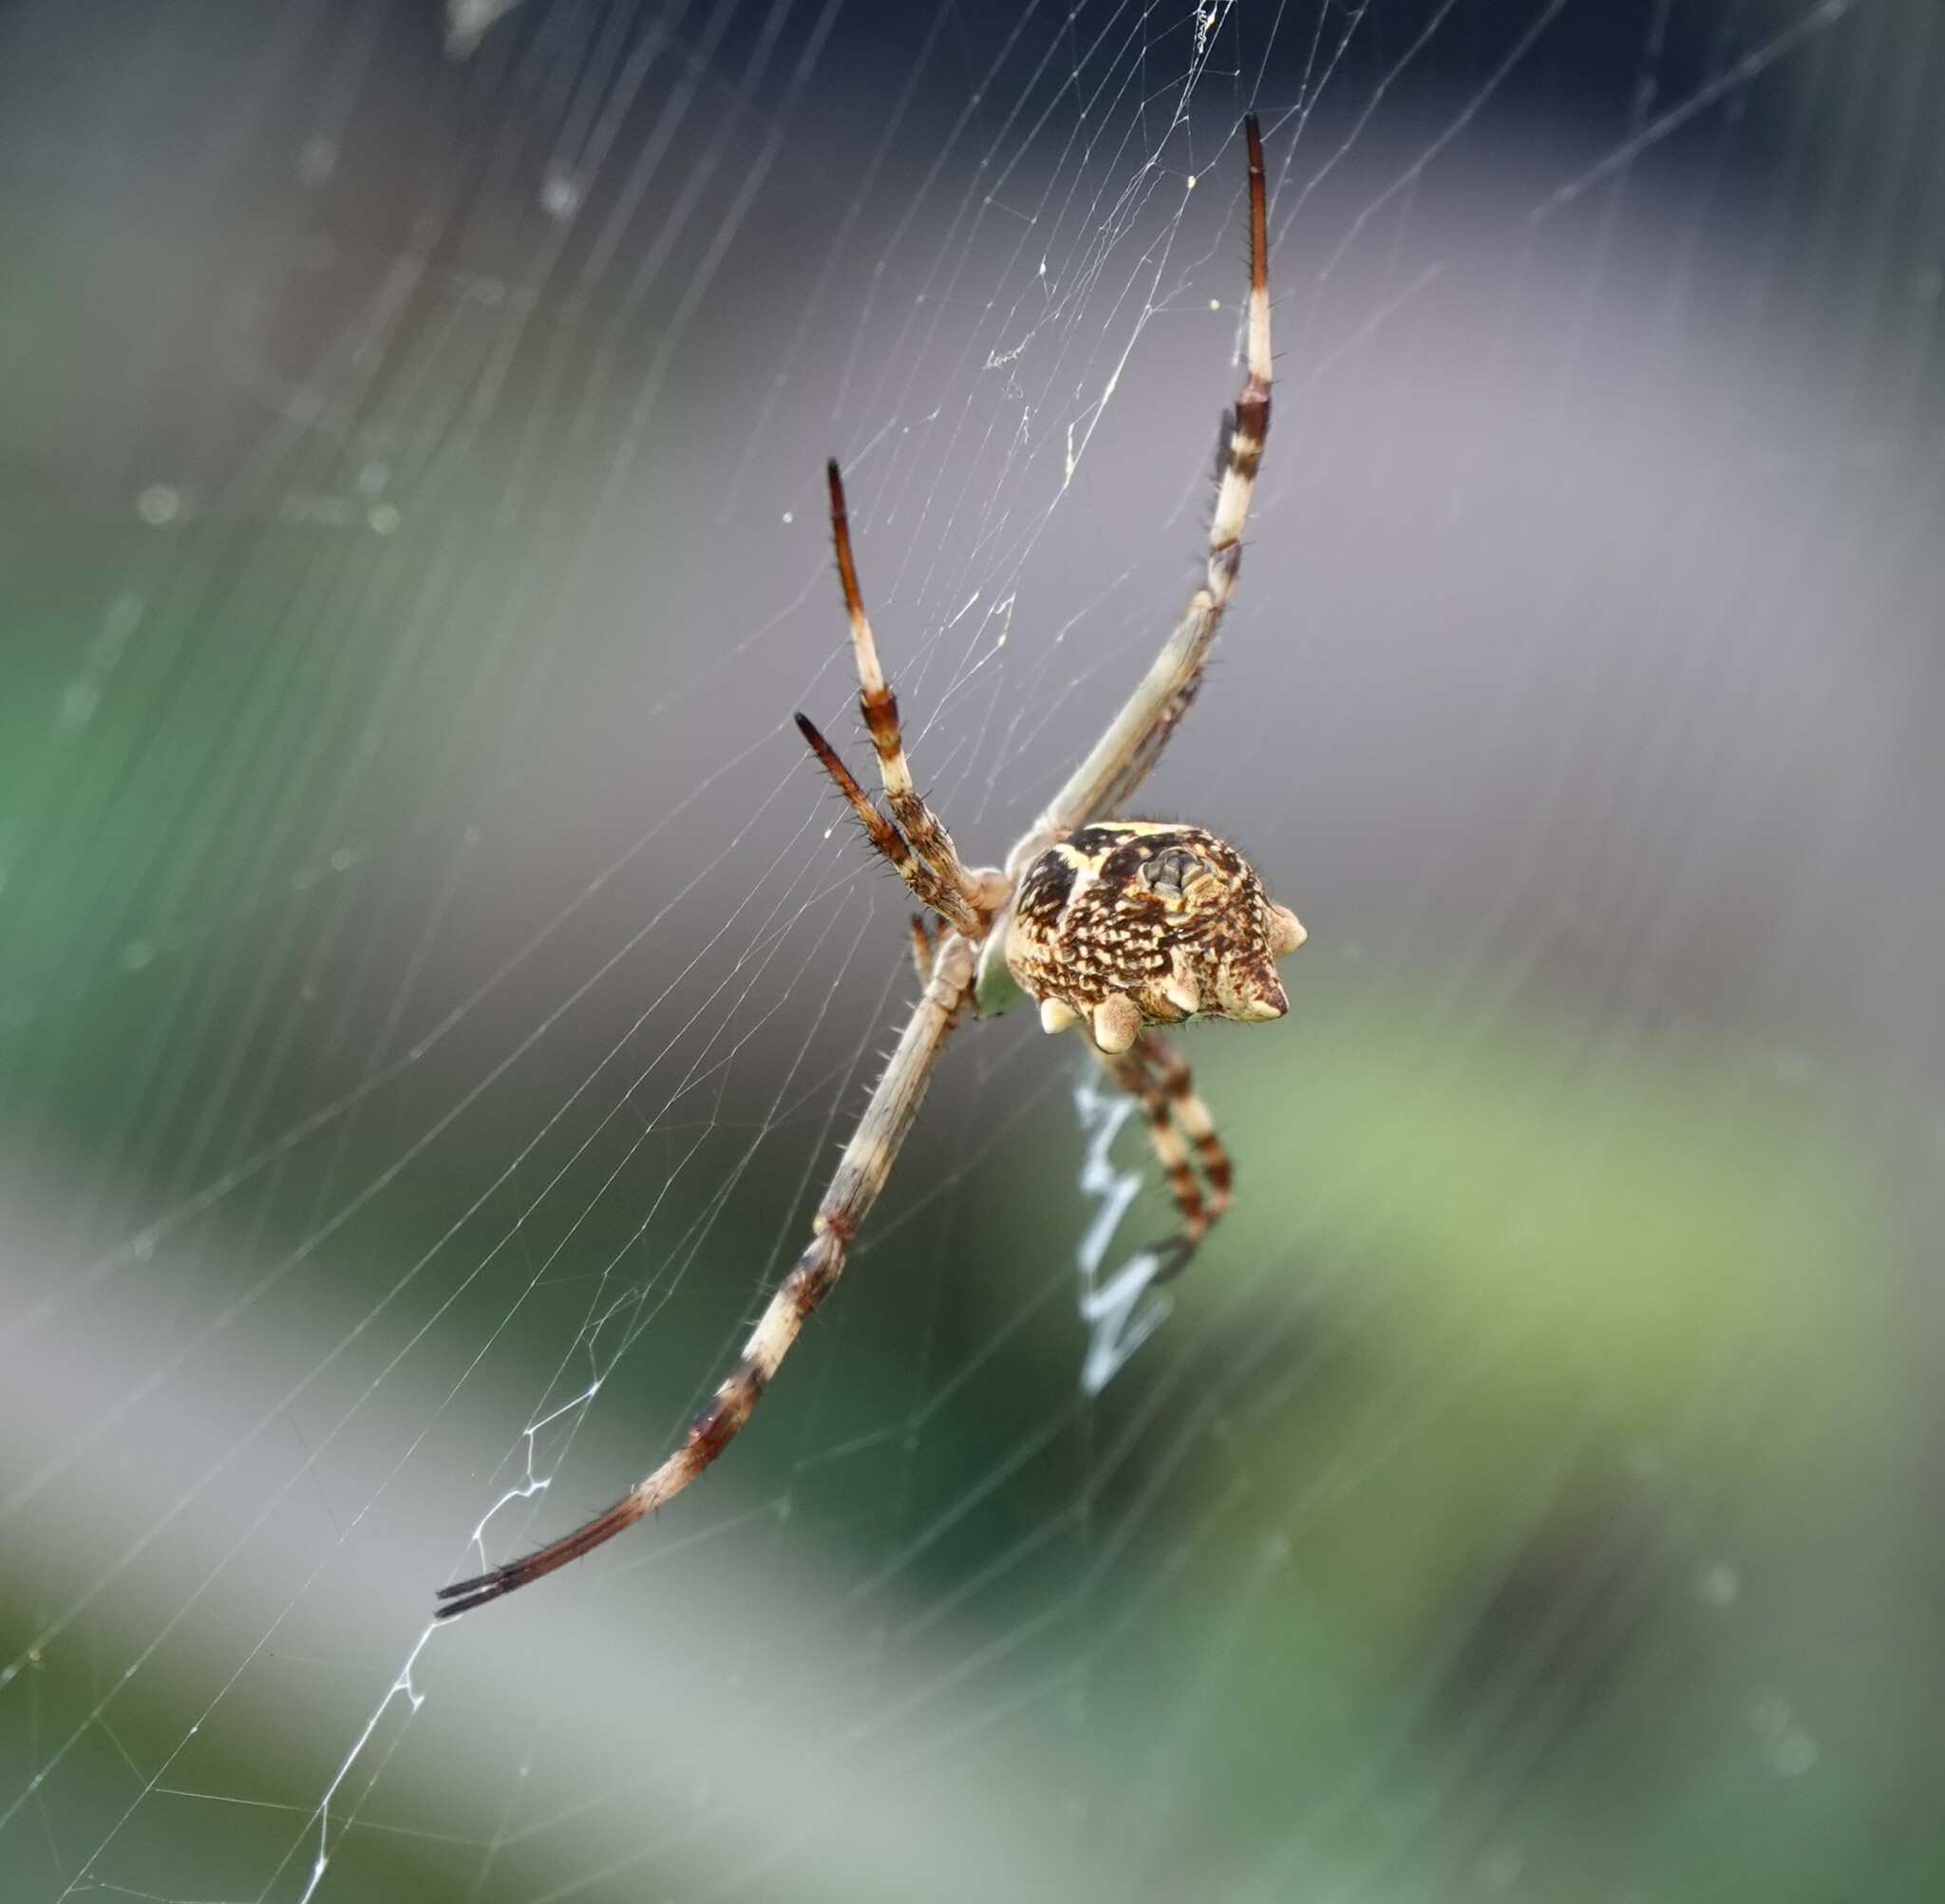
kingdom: Animalia
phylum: Arthropoda
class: Arachnida
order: Araneae
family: Araneidae
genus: Argiope
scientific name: Argiope argentata
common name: Orb weavers
